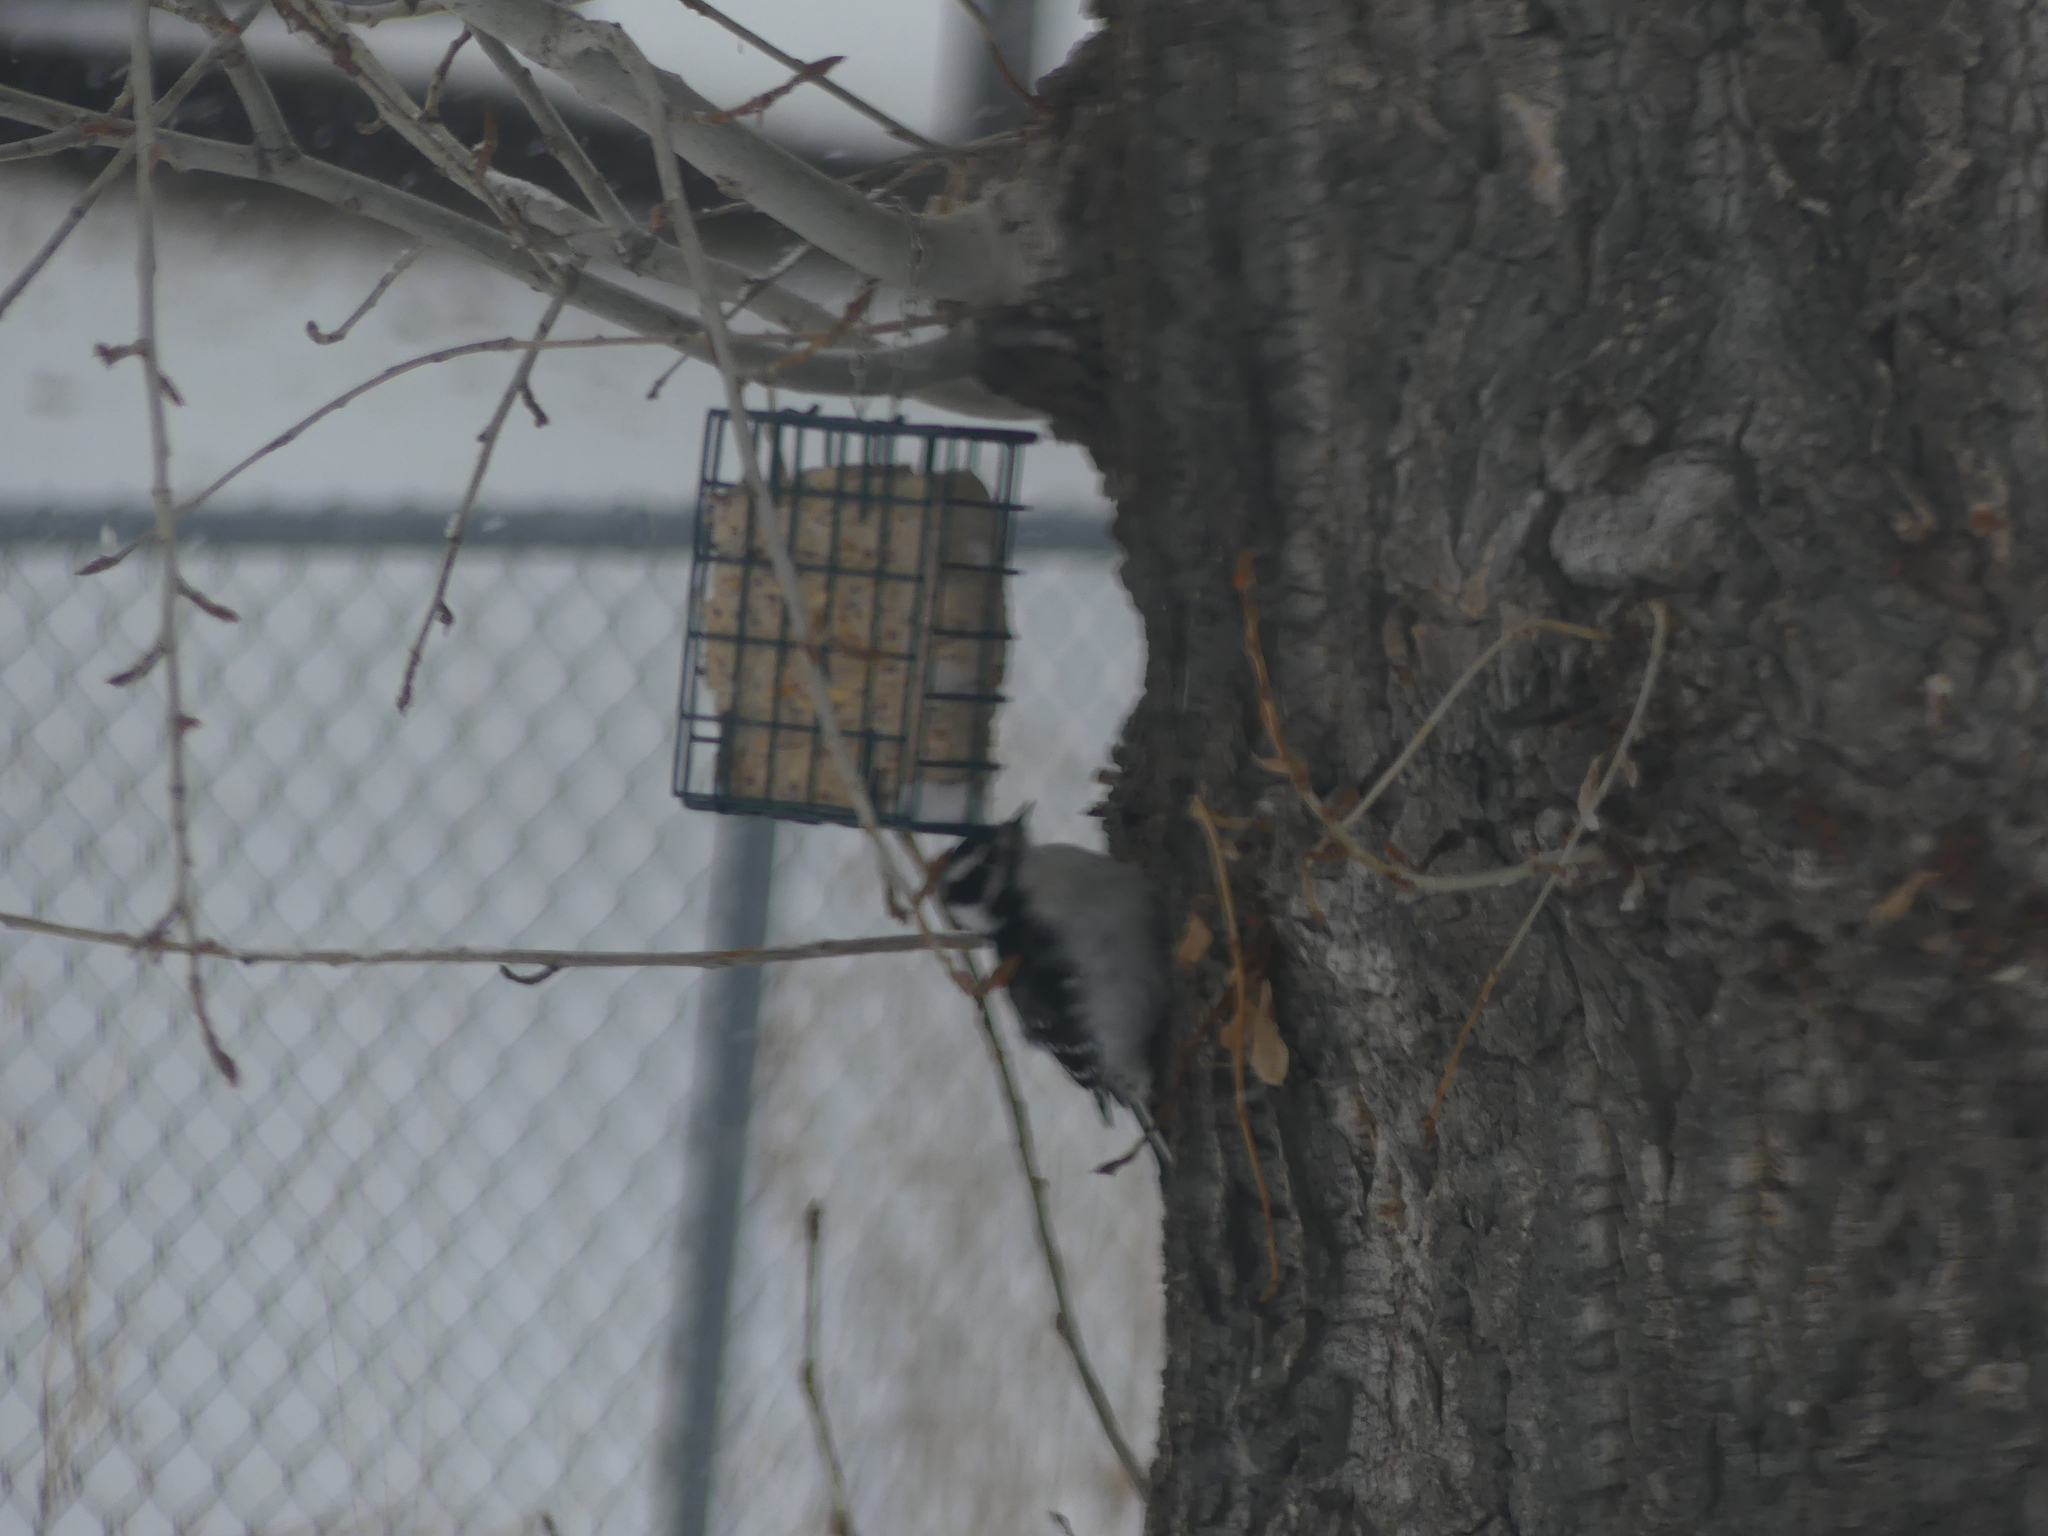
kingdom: Animalia
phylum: Chordata
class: Aves
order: Piciformes
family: Picidae
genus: Dryobates
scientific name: Dryobates pubescens
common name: Downy woodpecker
